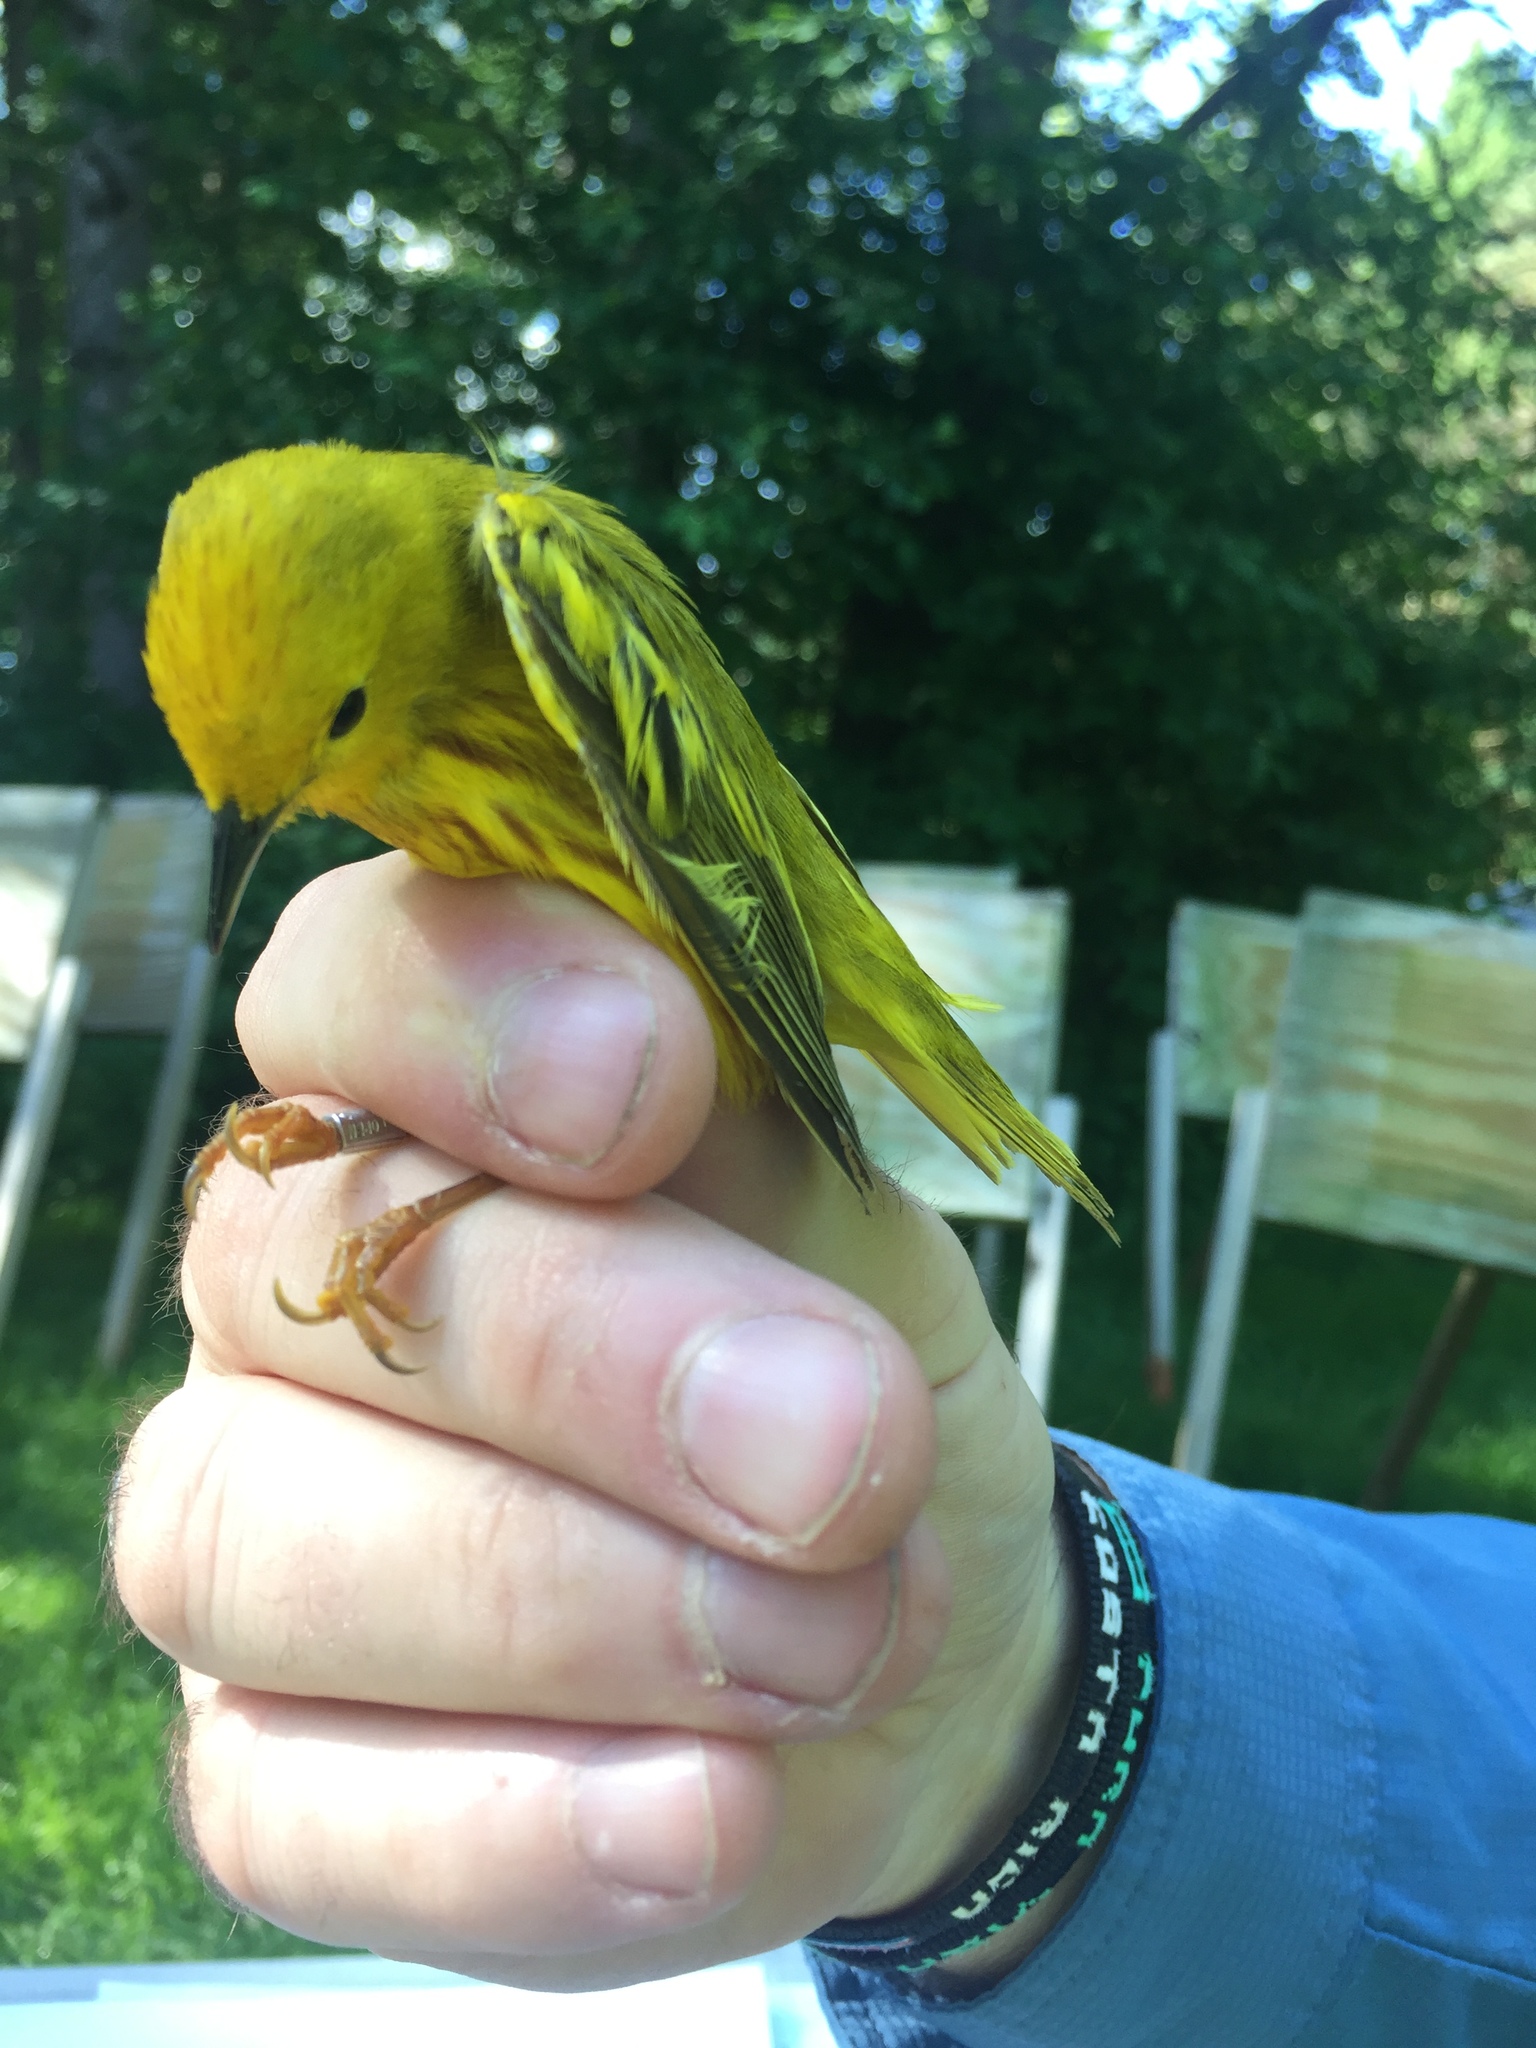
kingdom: Animalia
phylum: Chordata
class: Aves
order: Passeriformes
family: Parulidae
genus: Setophaga
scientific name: Setophaga petechia
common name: Yellow warbler
